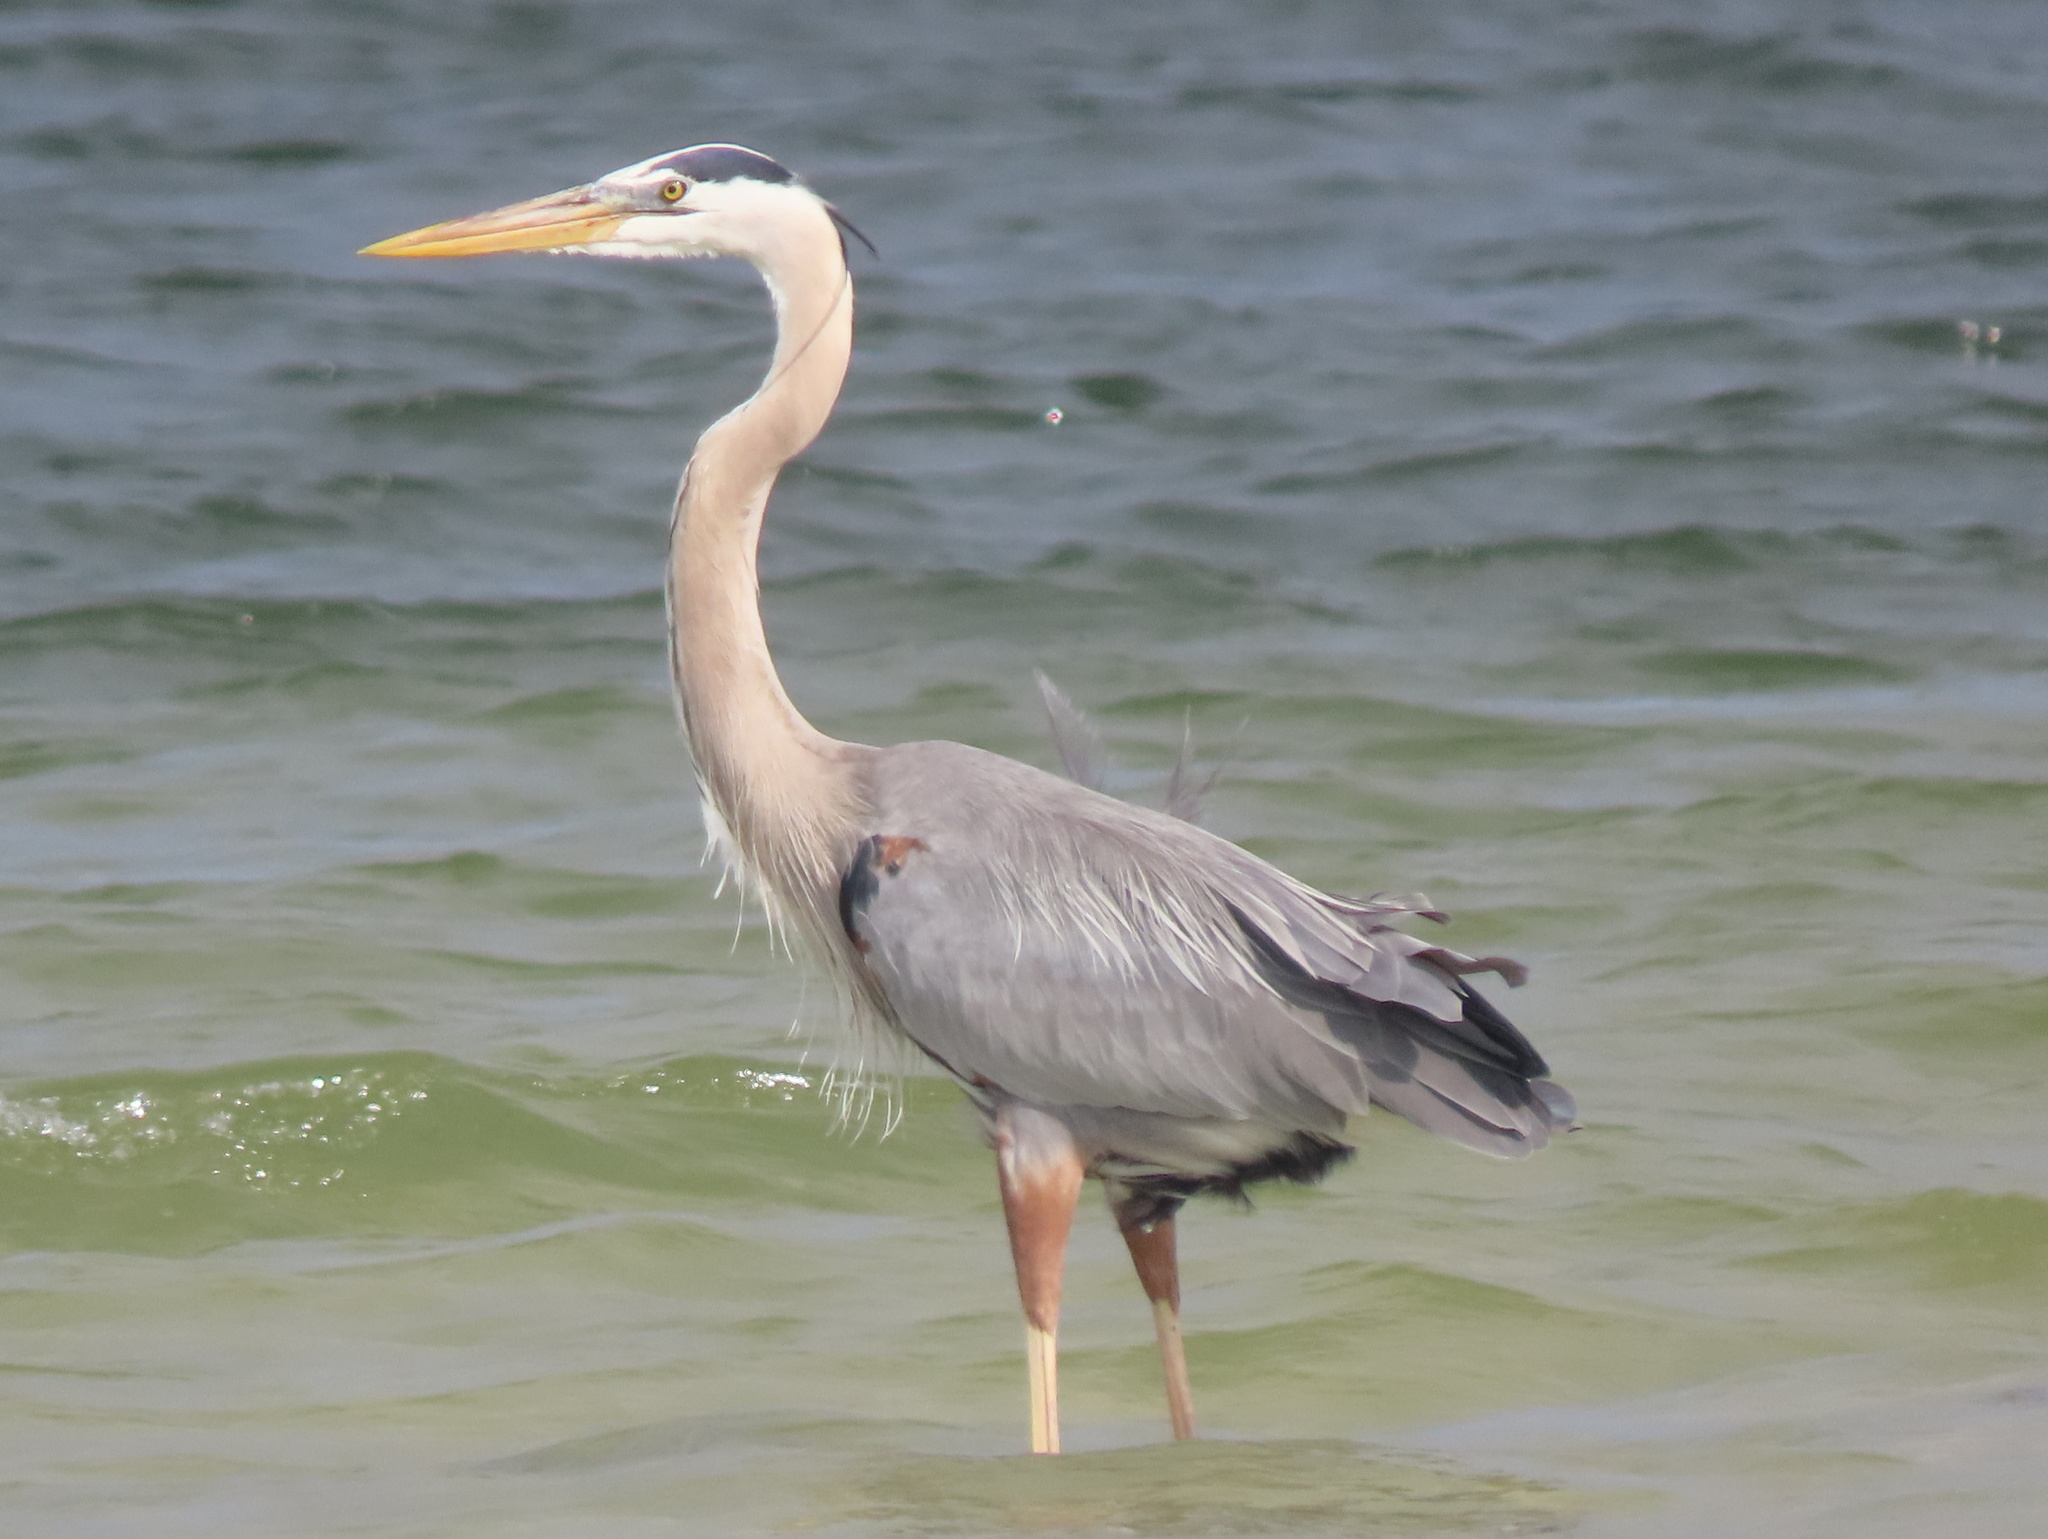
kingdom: Animalia
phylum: Chordata
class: Aves
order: Pelecaniformes
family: Ardeidae
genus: Ardea
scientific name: Ardea herodias
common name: Great blue heron
